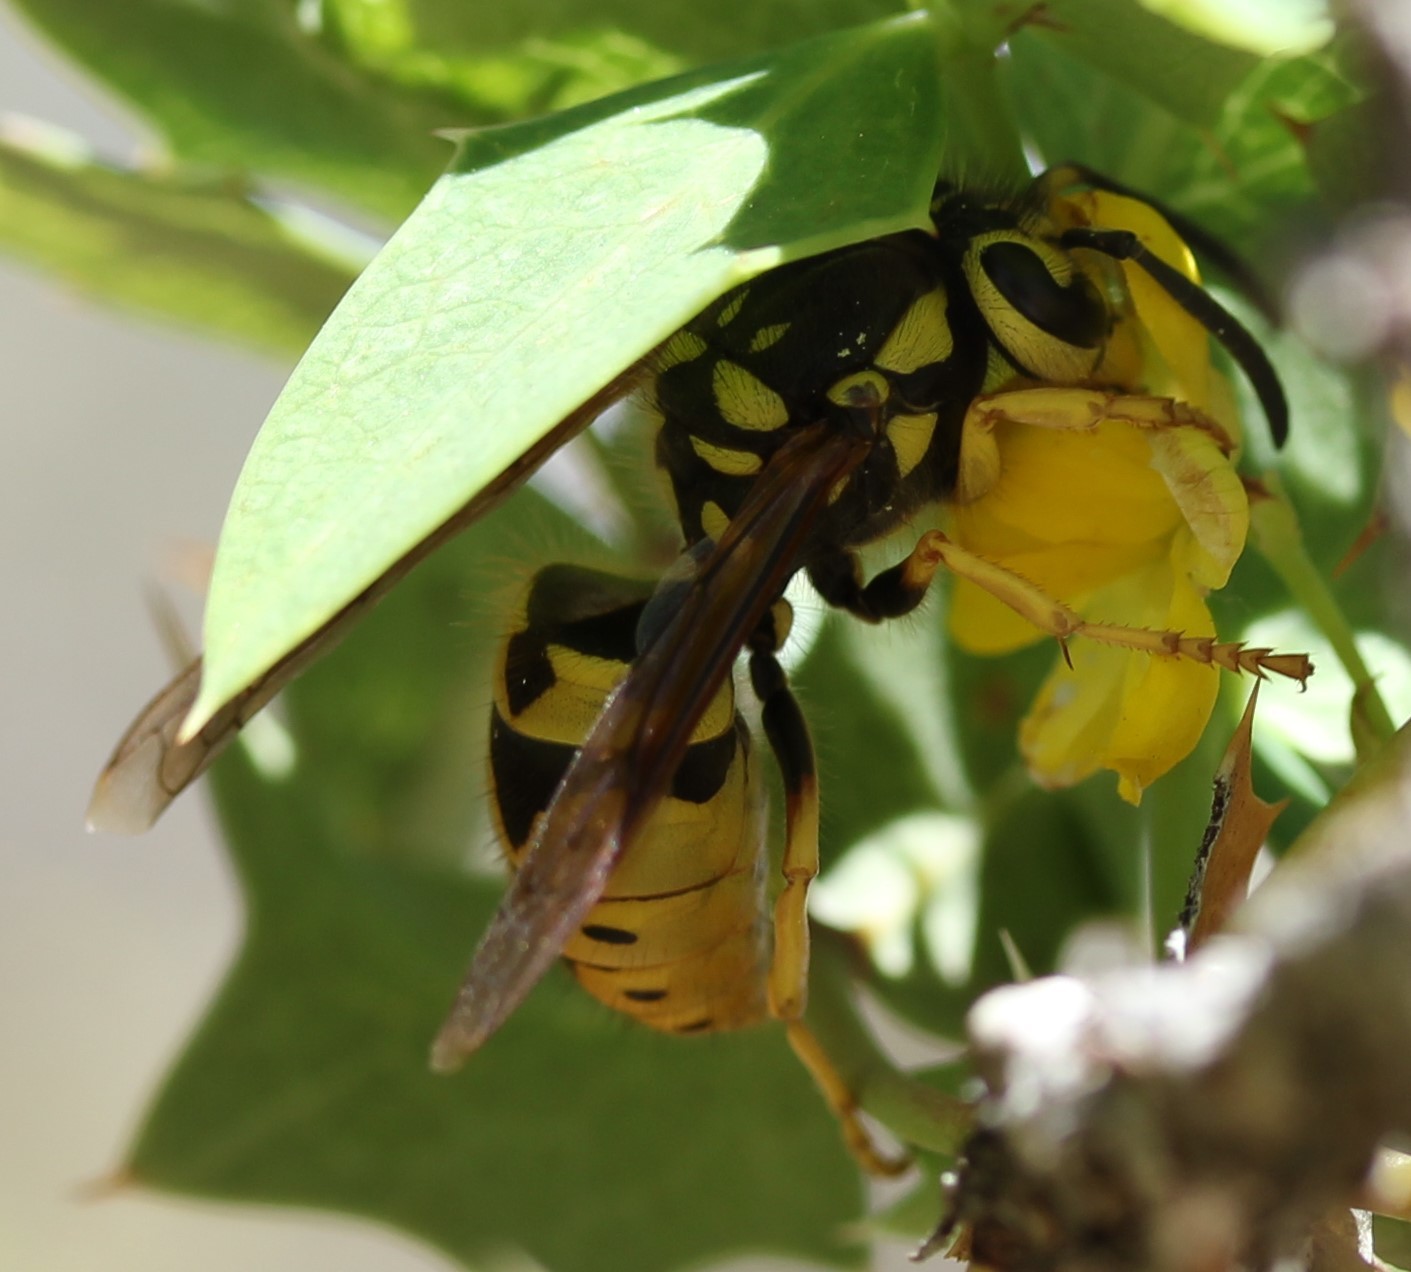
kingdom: Animalia
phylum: Arthropoda
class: Insecta
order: Hymenoptera
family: Vespidae
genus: Vespula
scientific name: Vespula pensylvanica
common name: Western yellowjacket
